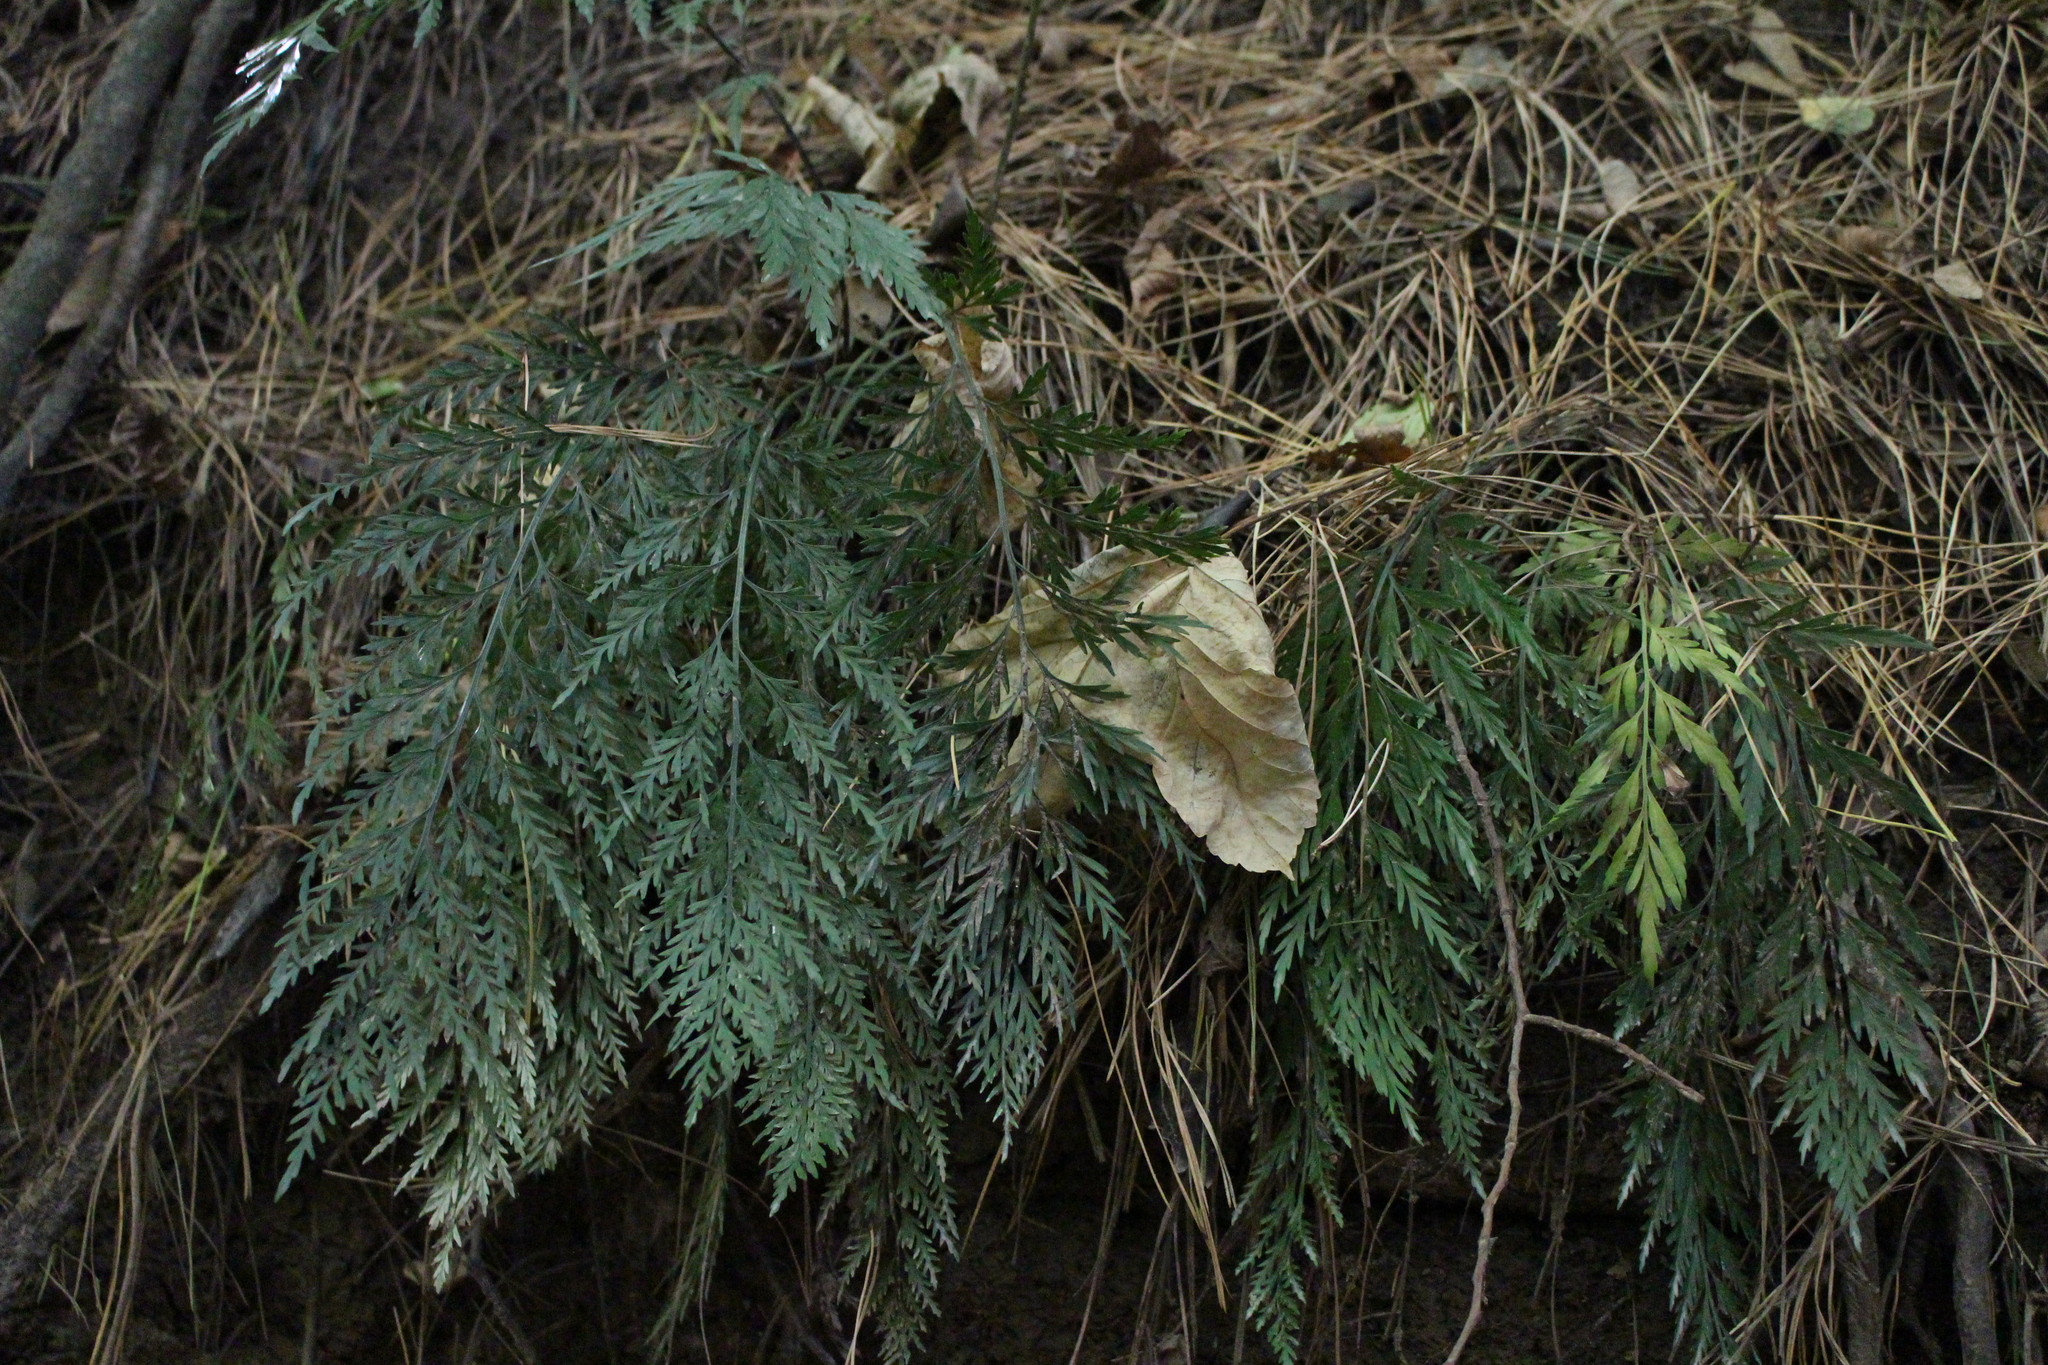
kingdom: Plantae
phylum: Tracheophyta
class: Polypodiopsida
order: Polypodiales
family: Aspleniaceae
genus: Asplenium
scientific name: Asplenium appendiculatum
